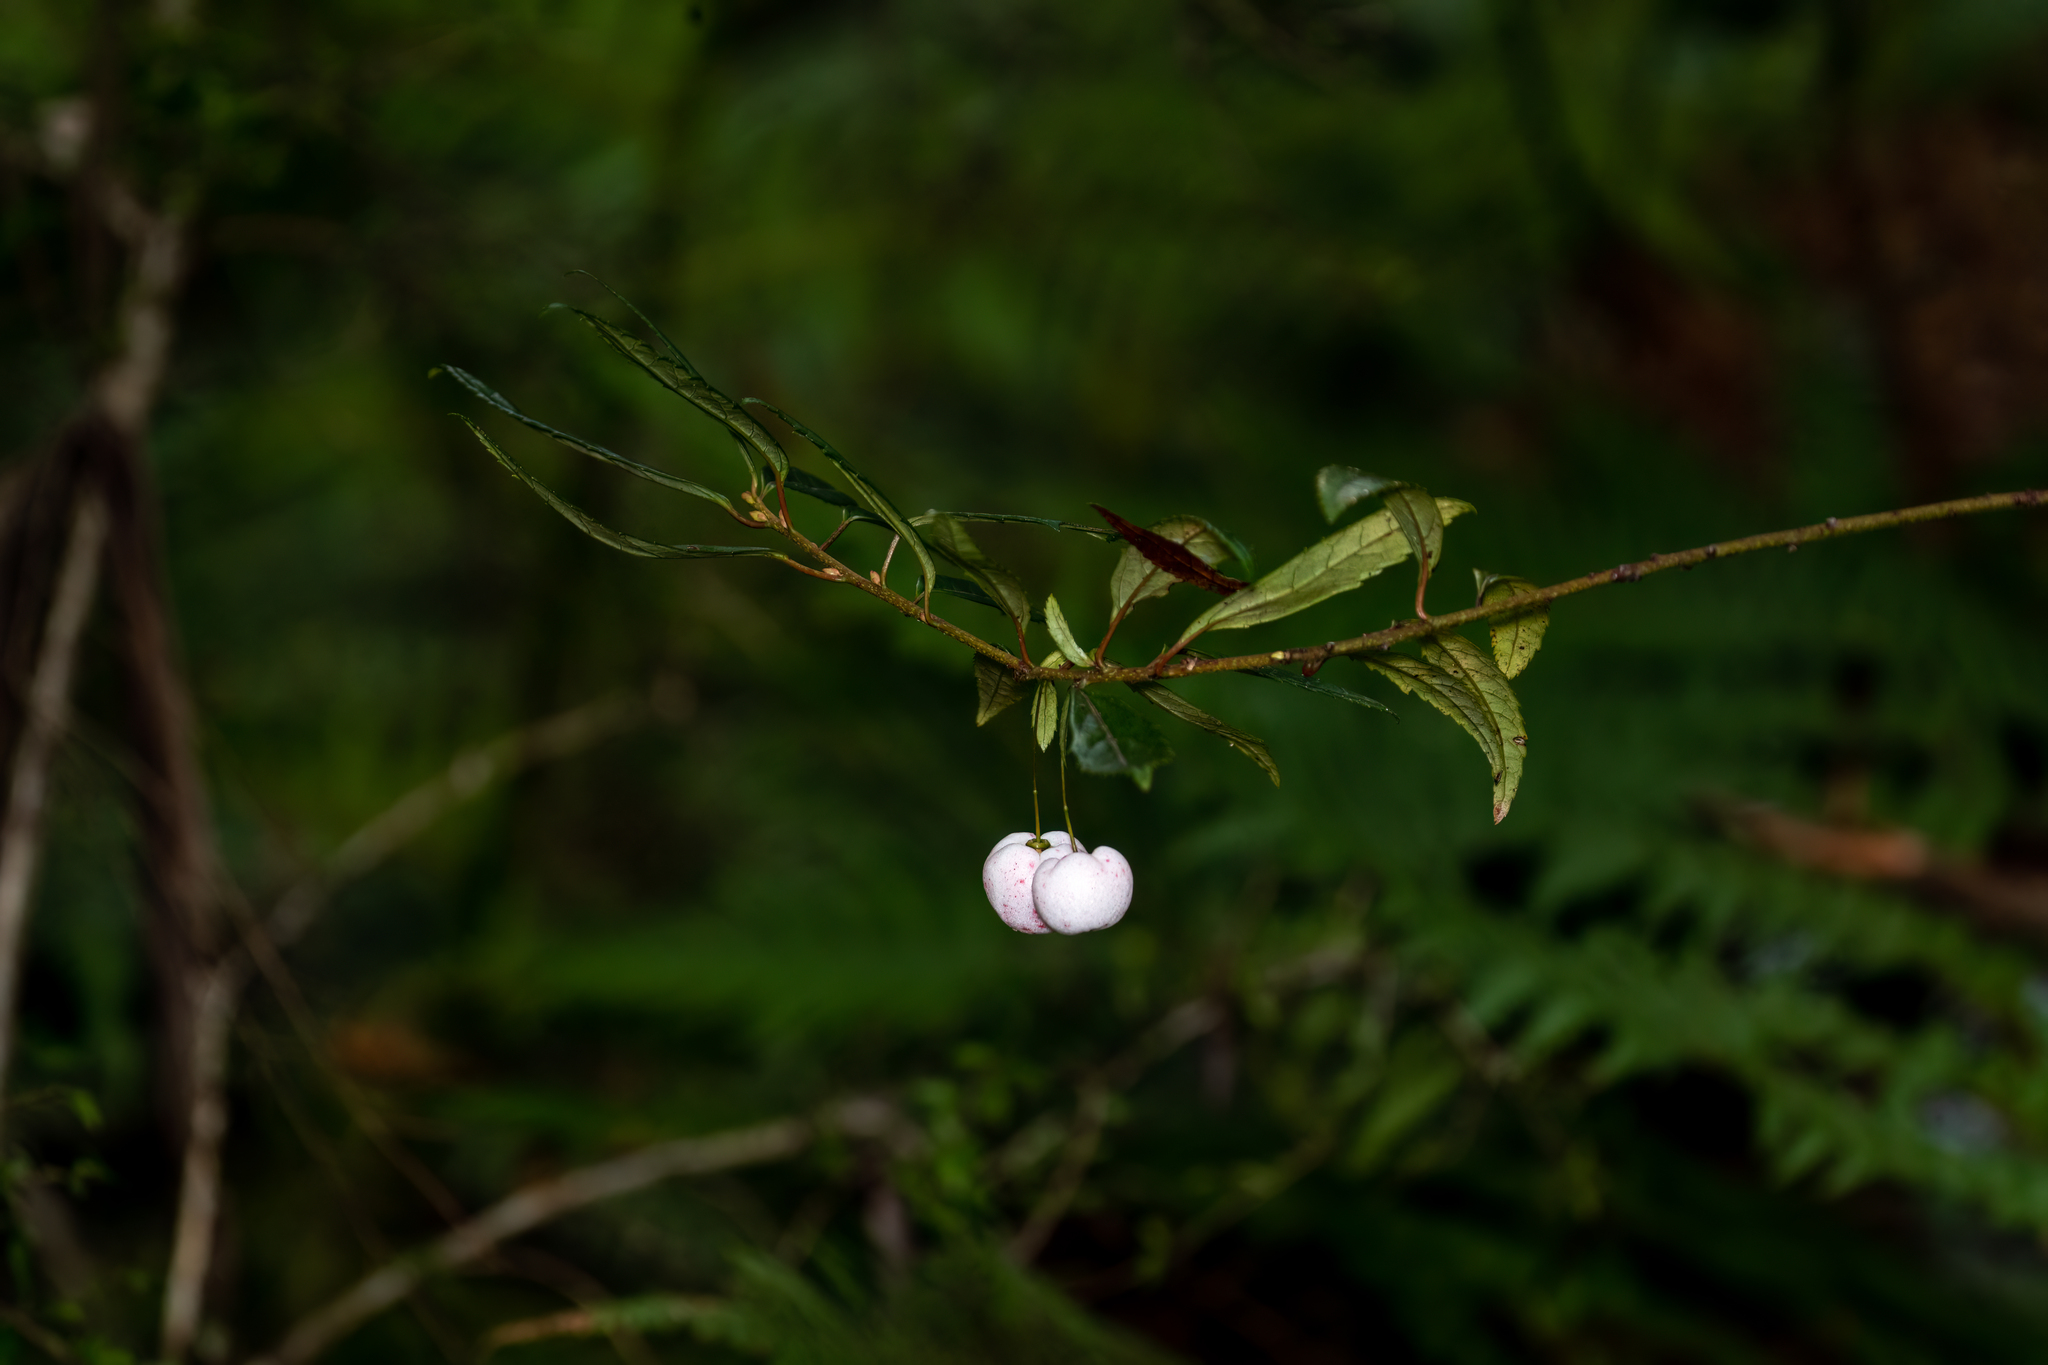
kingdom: Plantae
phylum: Tracheophyta
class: Magnoliopsida
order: Oxalidales
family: Elaeocarpaceae
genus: Aristotelia
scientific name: Aristotelia peduncularis
